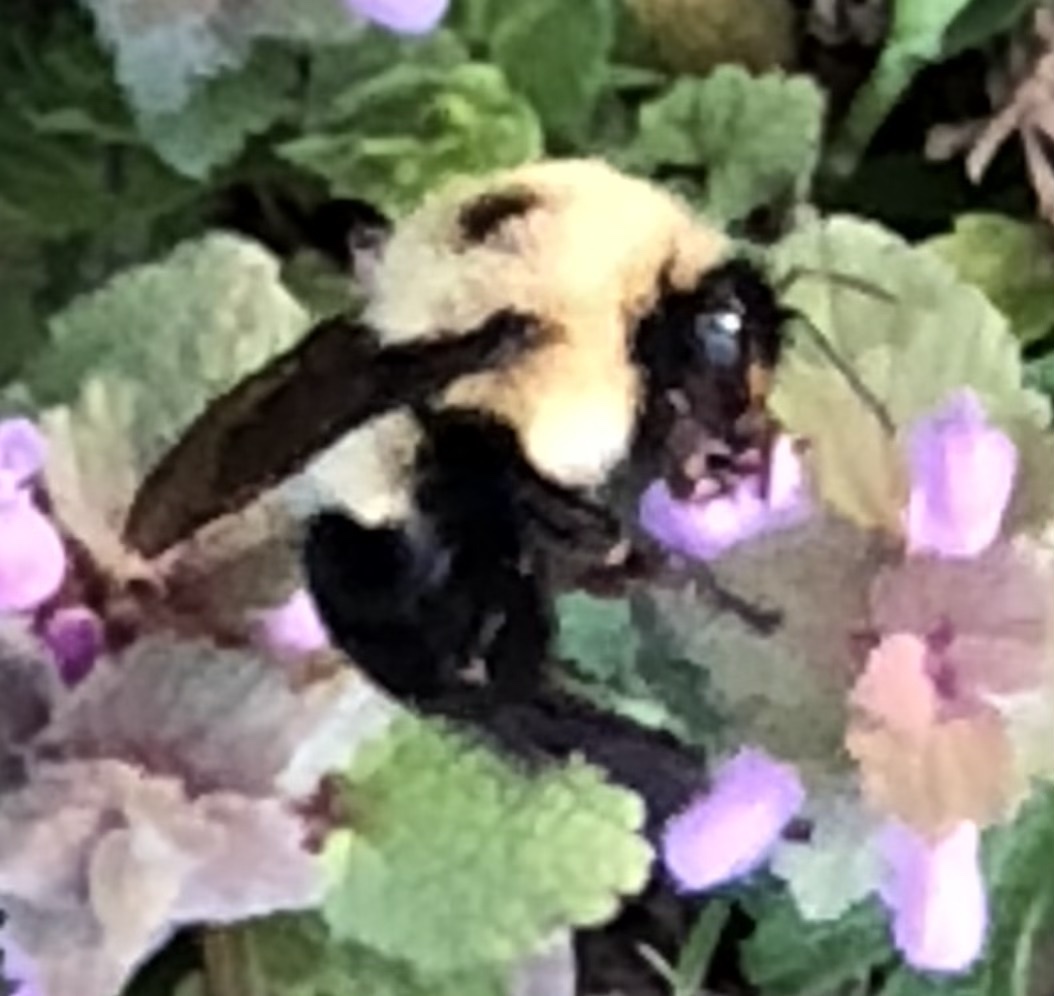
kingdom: Animalia
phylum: Arthropoda
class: Insecta
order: Hymenoptera
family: Apidae
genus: Bombus
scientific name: Bombus bimaculatus
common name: Two-spotted bumble bee
